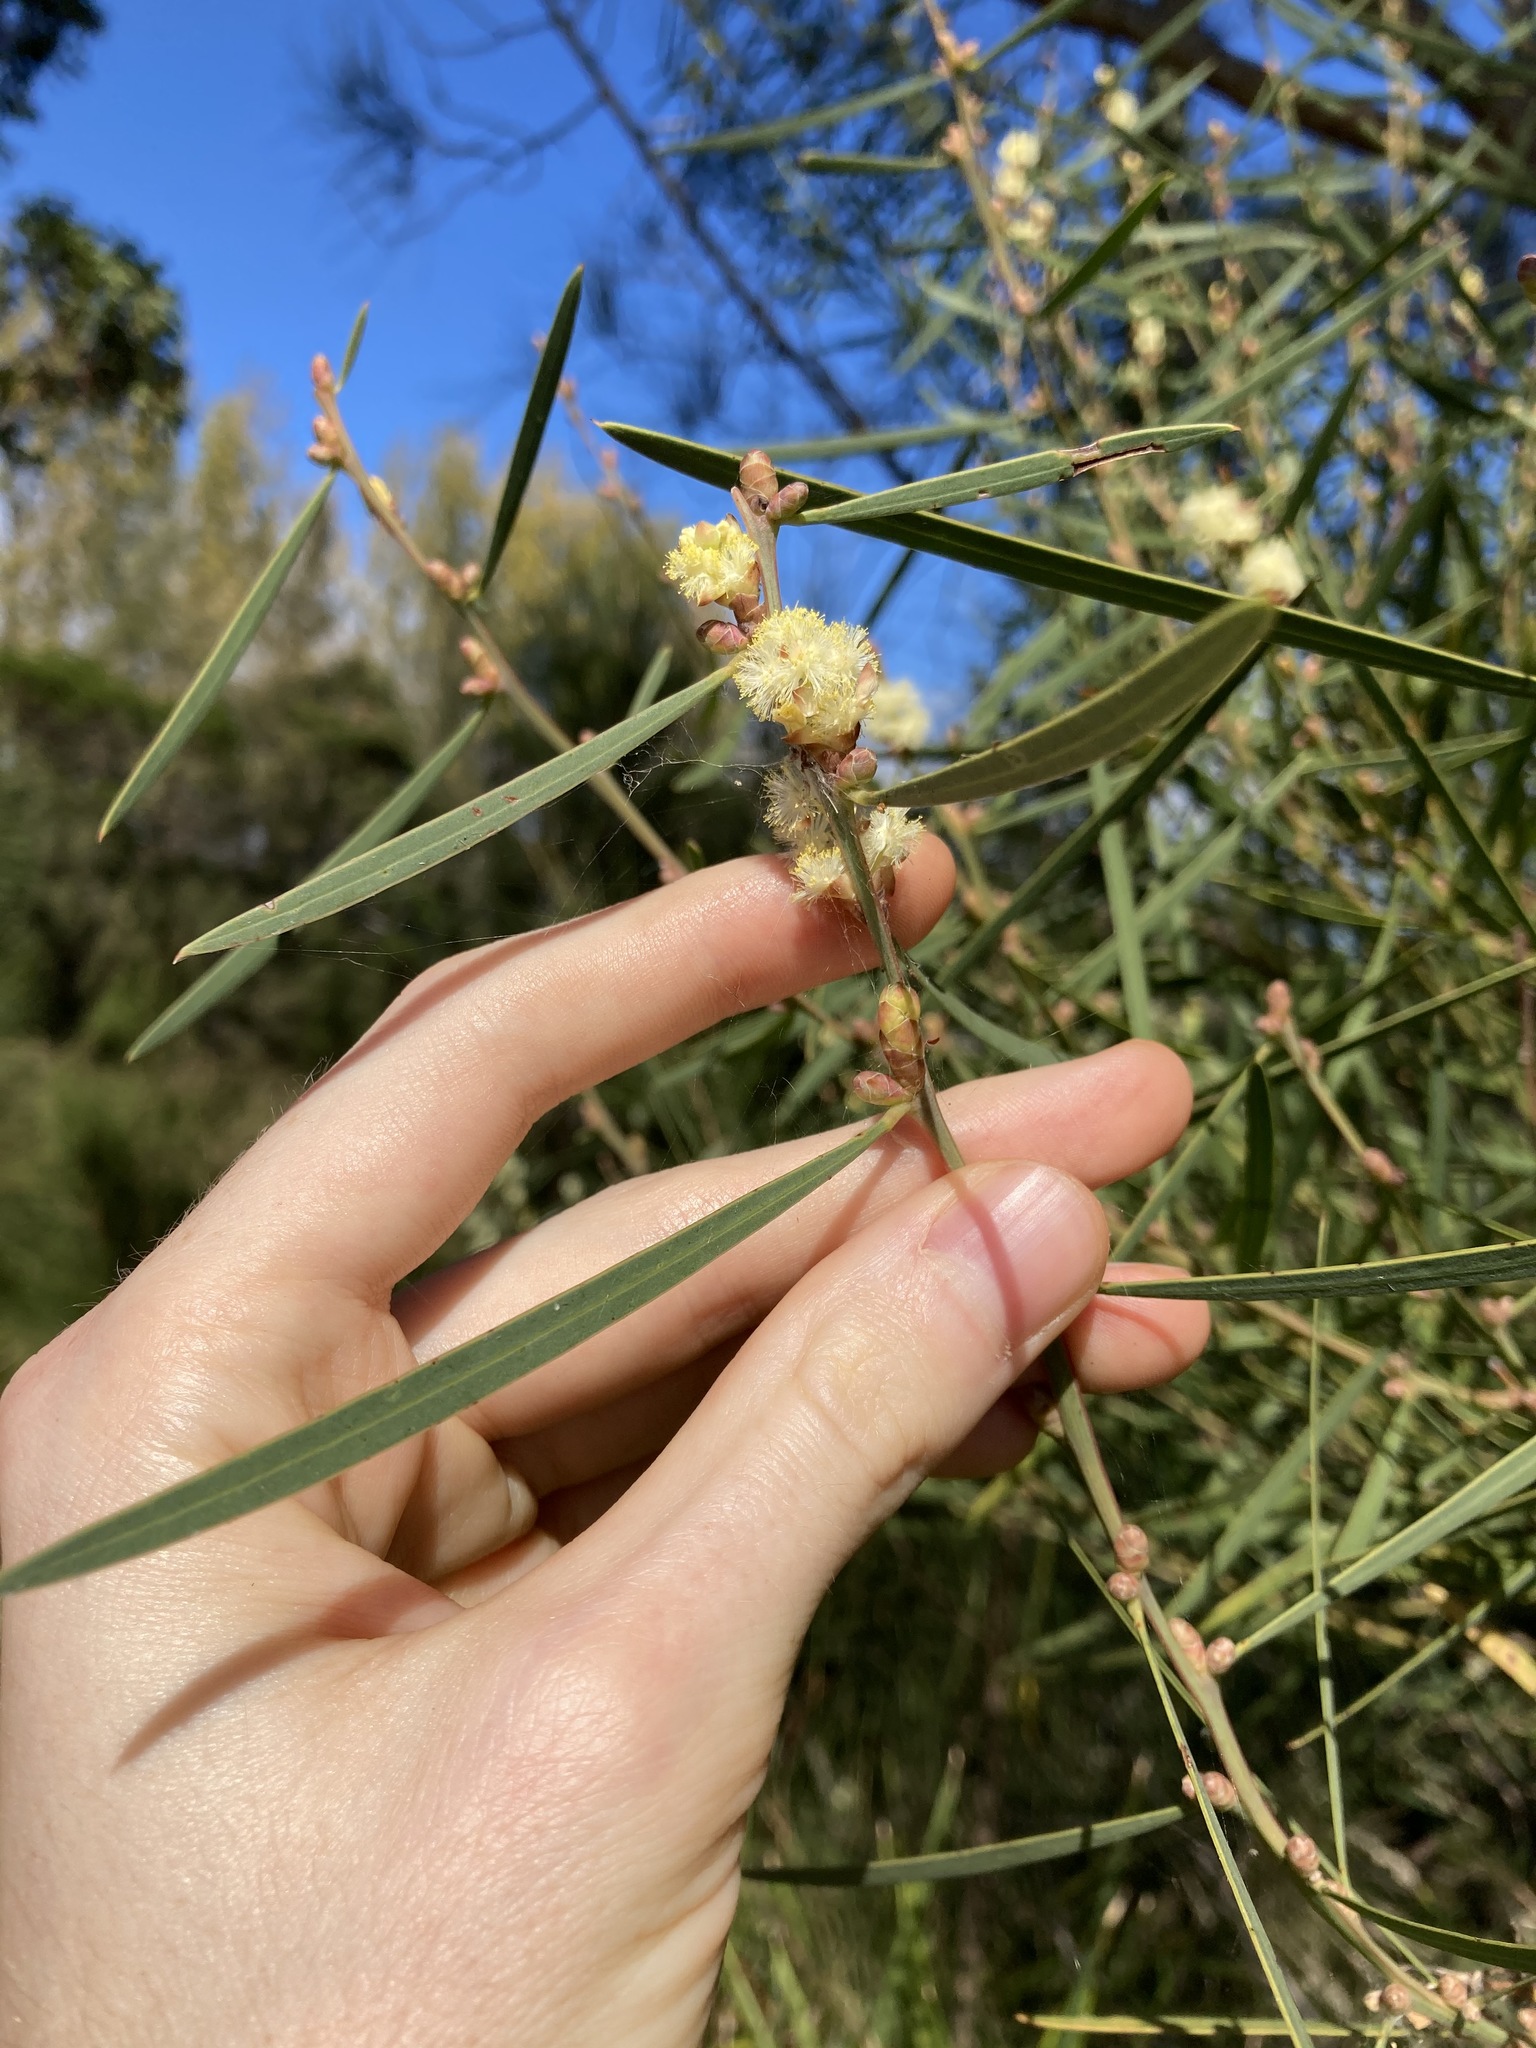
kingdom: Plantae
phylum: Tracheophyta
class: Magnoliopsida
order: Fabales
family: Fabaceae
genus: Acacia
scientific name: Acacia suaveolens
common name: Sweet acacia
